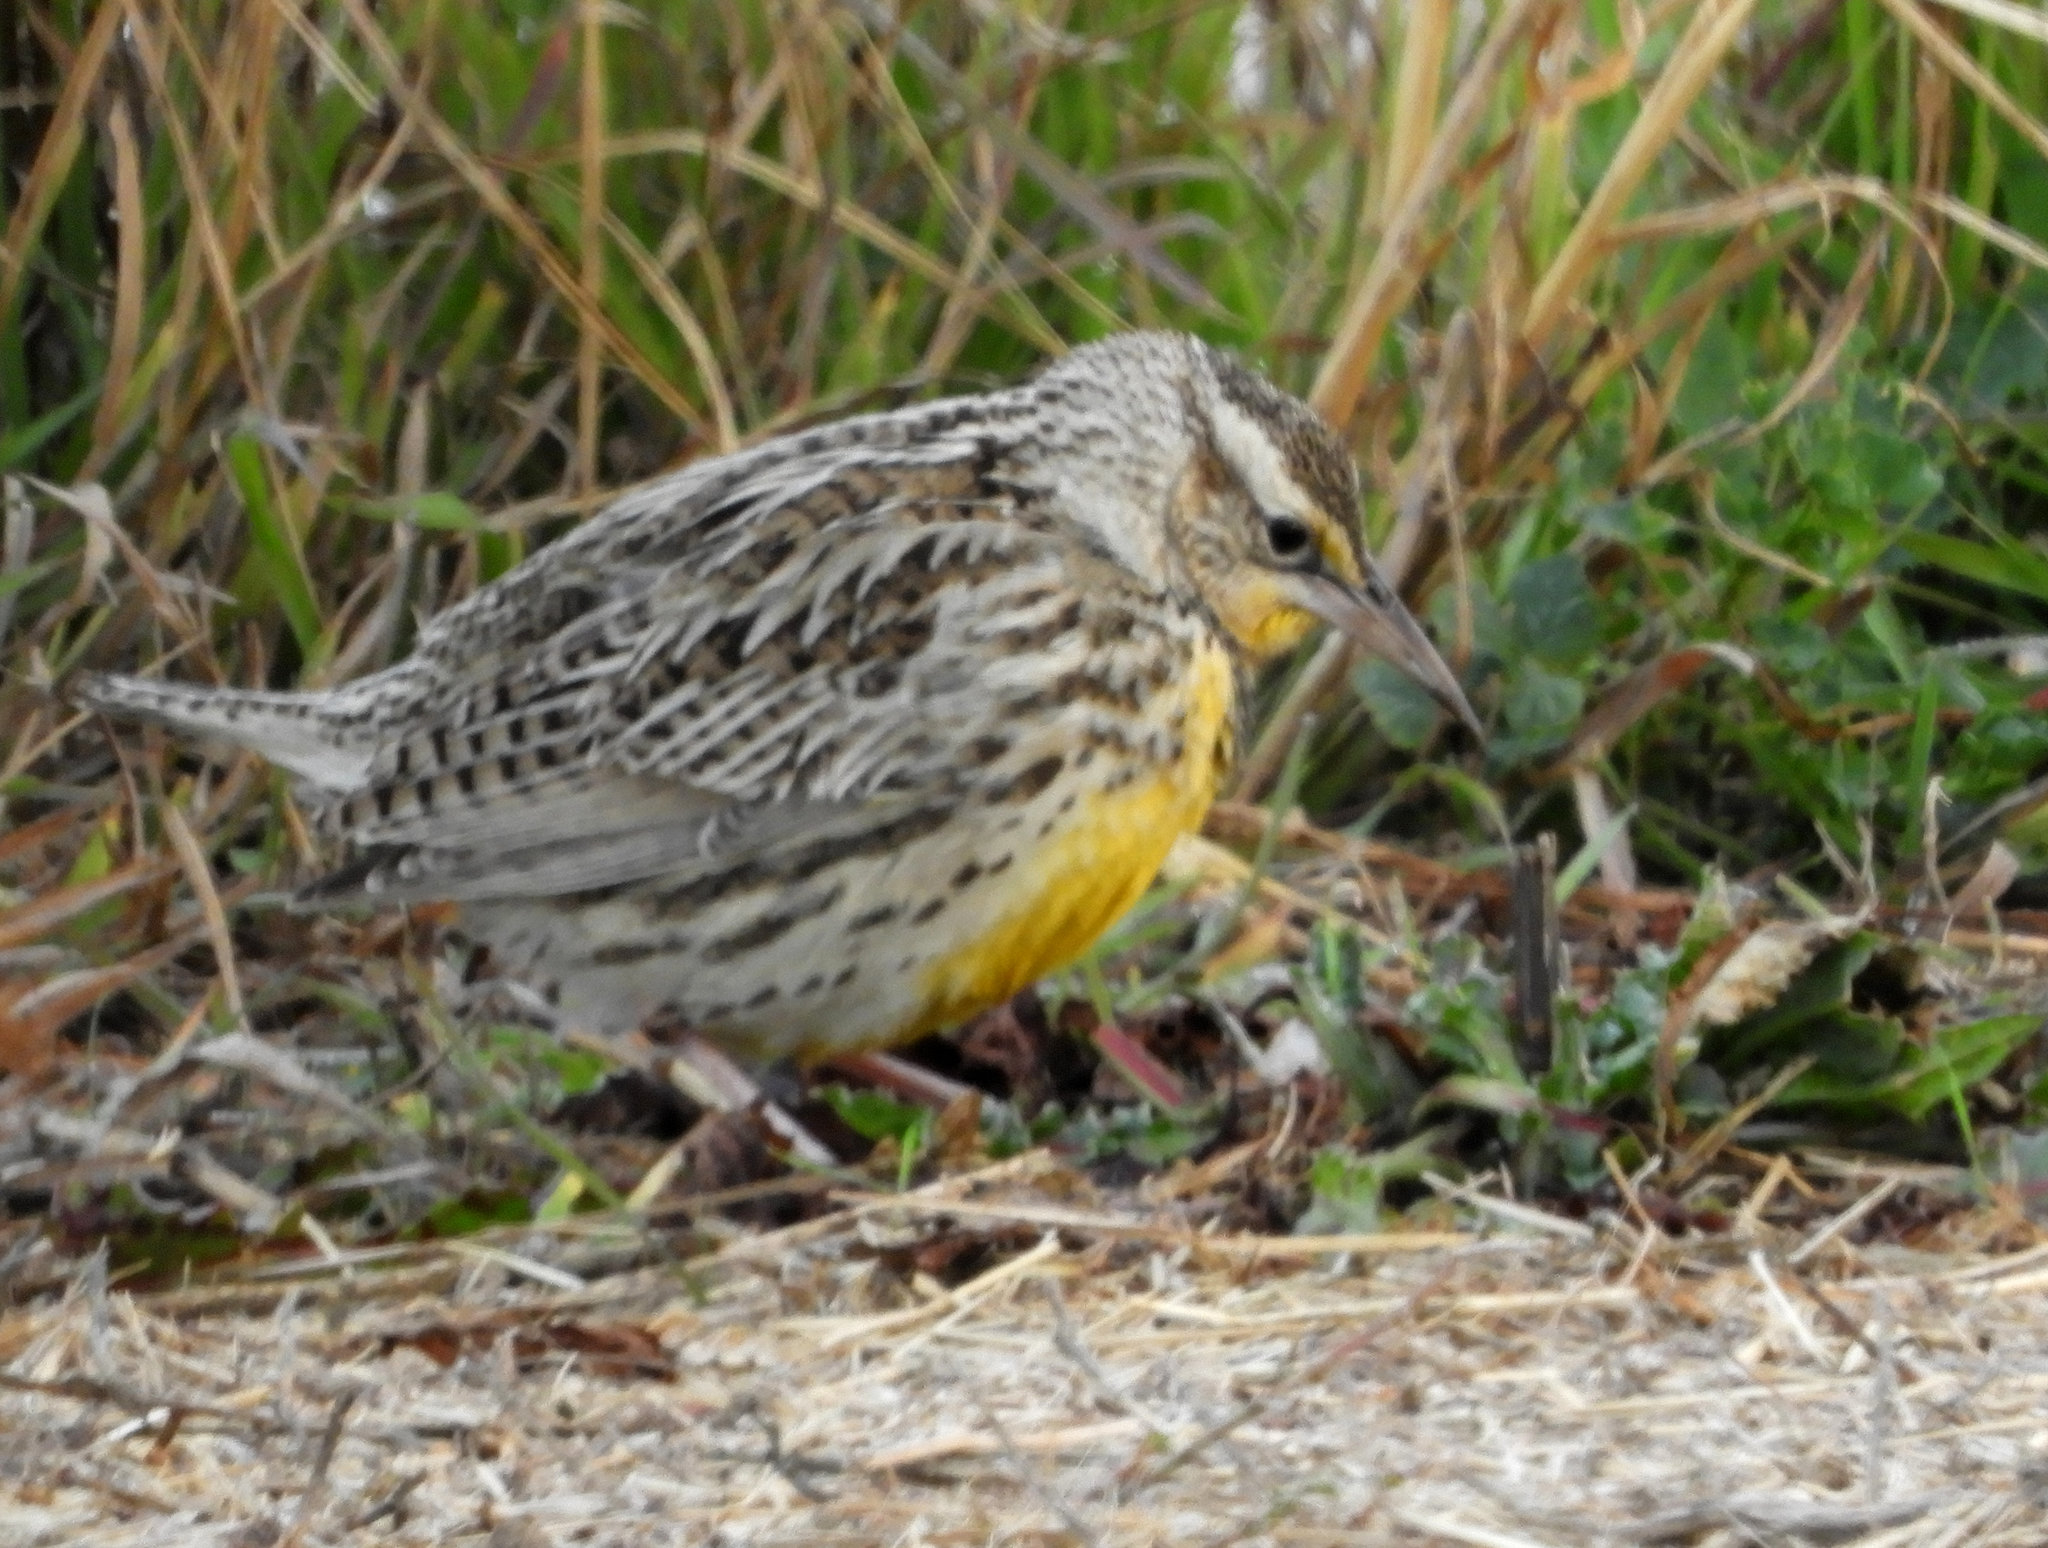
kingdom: Animalia
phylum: Chordata
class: Aves
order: Passeriformes
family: Icteridae
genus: Sturnella
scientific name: Sturnella neglecta
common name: Western meadowlark
